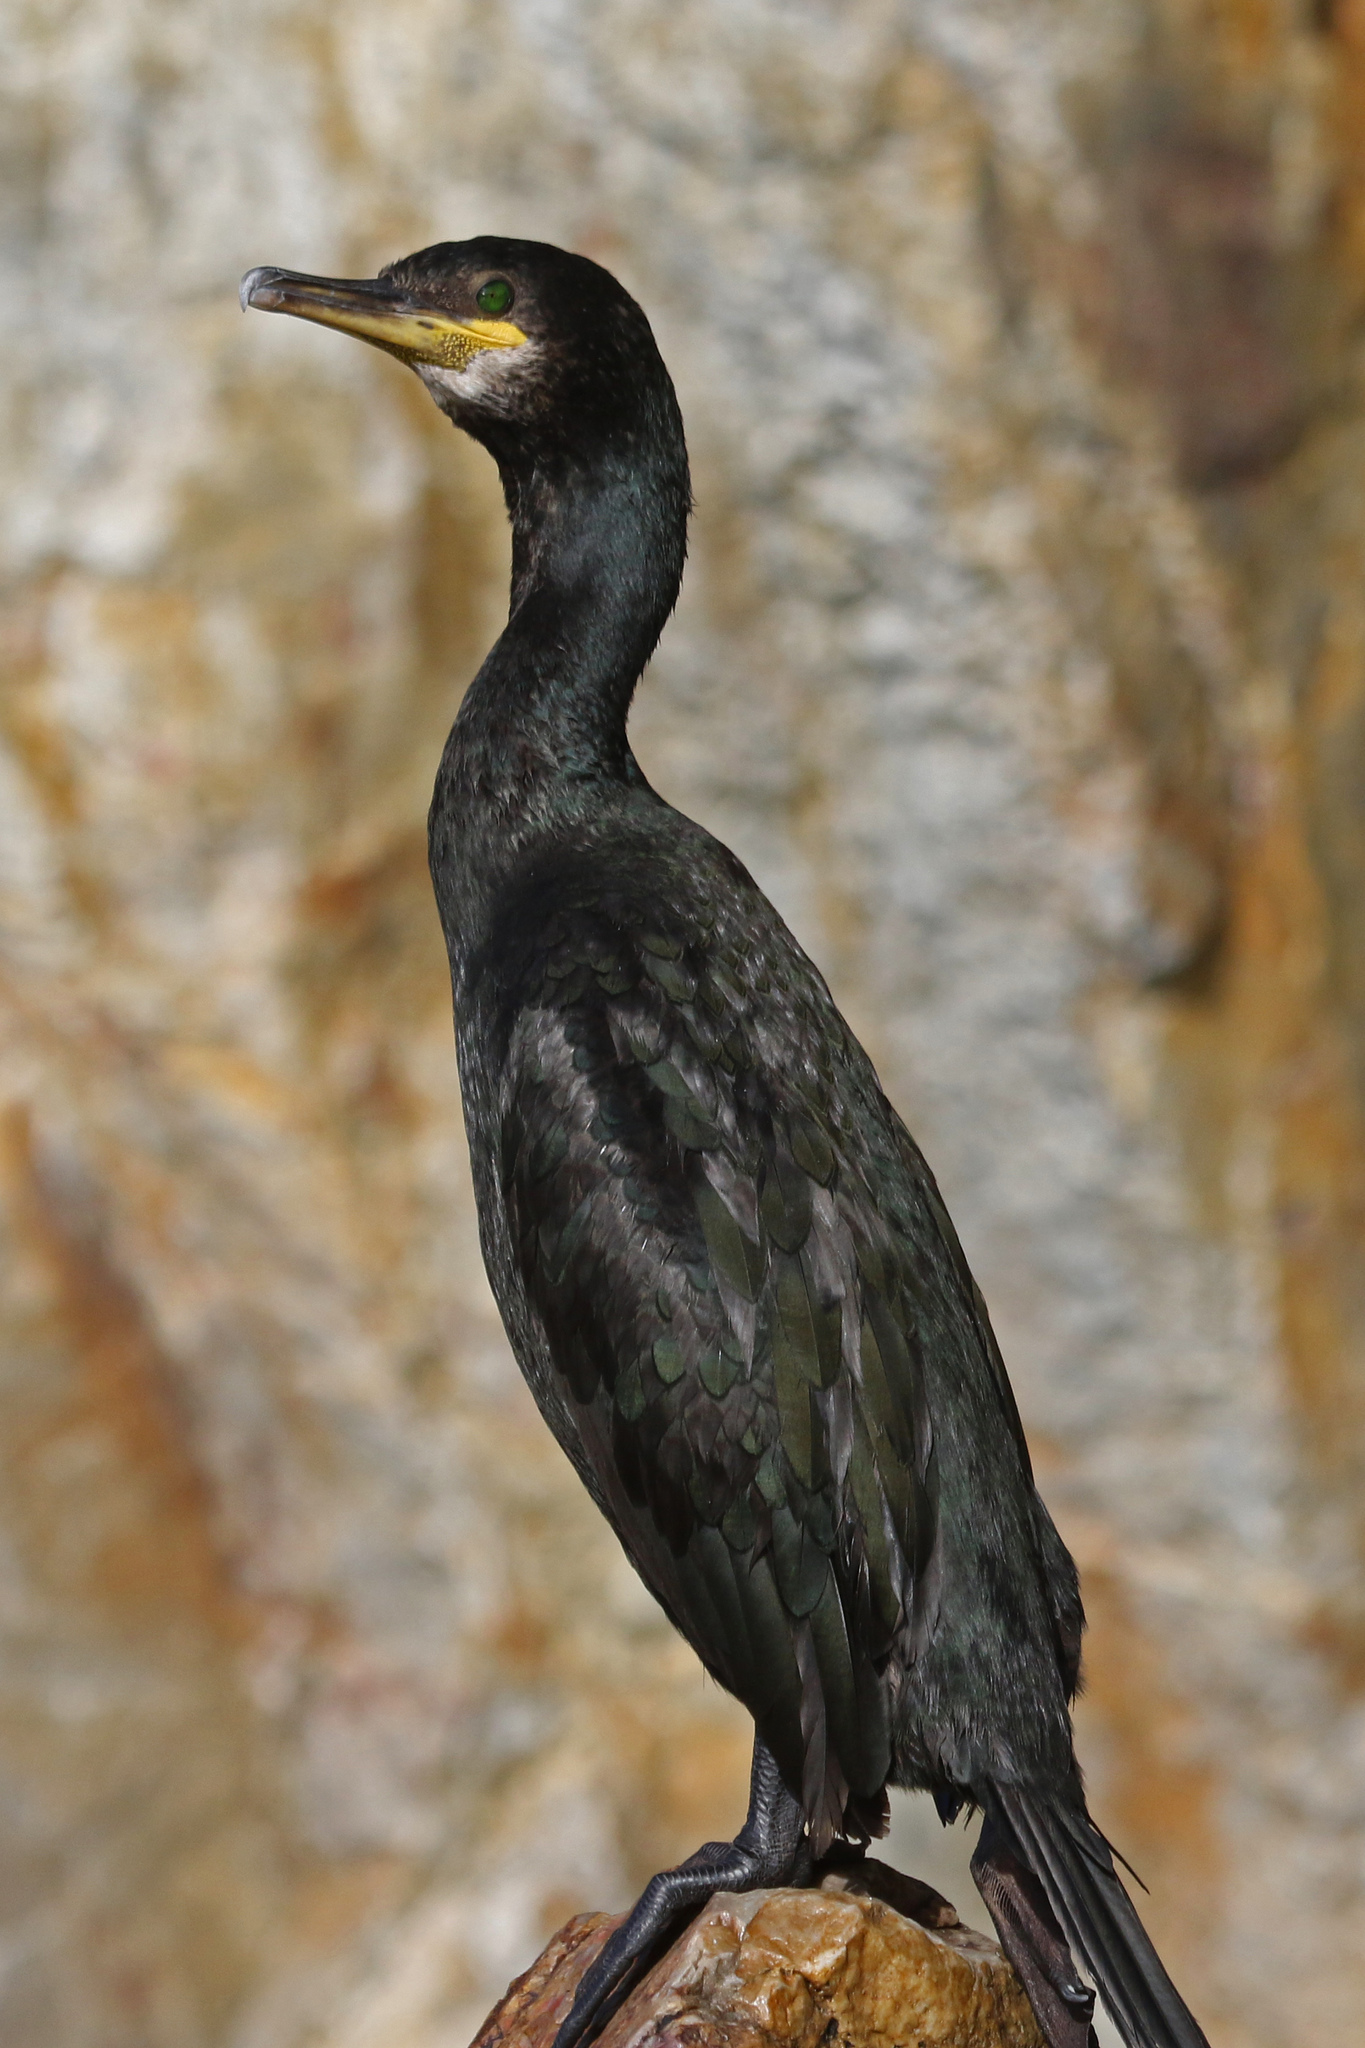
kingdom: Animalia
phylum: Chordata
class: Aves
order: Suliformes
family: Phalacrocoracidae
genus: Phalacrocorax
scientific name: Phalacrocorax aristotelis
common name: European shag
